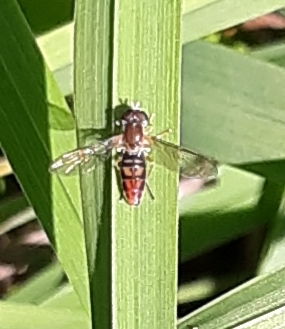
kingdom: Animalia
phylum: Arthropoda
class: Insecta
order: Diptera
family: Syrphidae
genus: Toxomerus
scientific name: Toxomerus marginatus
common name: Syrphid fly
